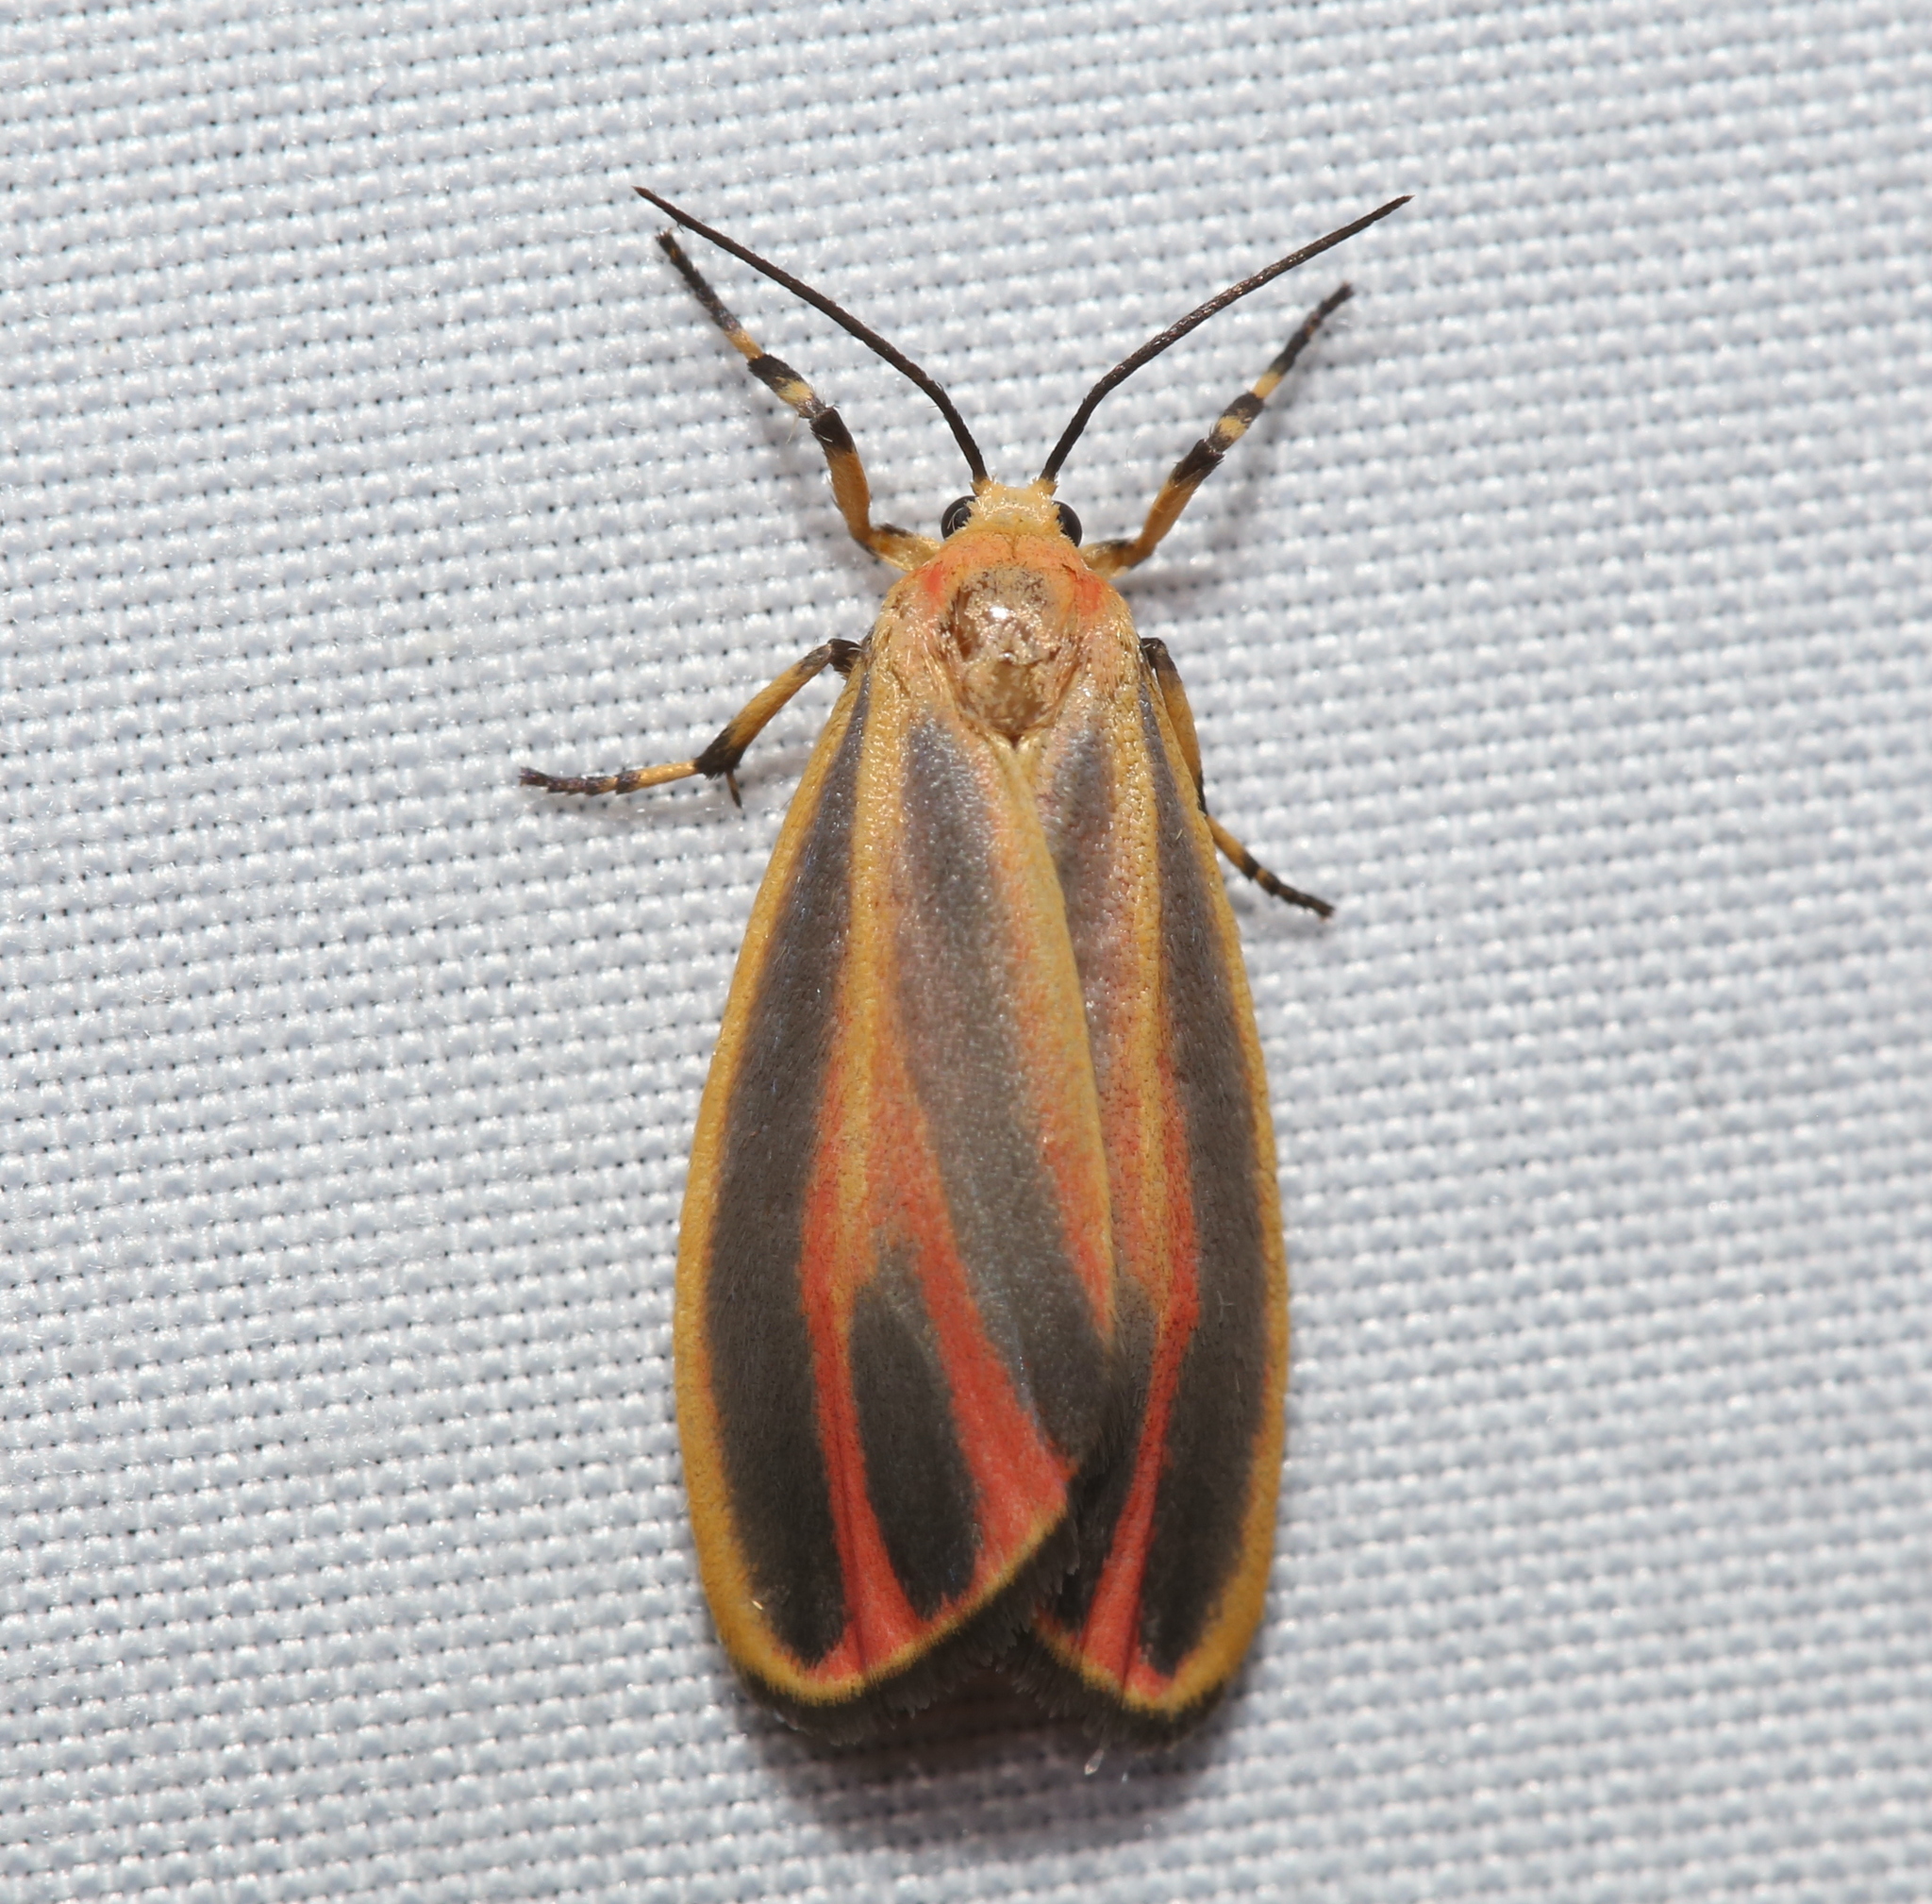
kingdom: Animalia
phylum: Arthropoda
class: Insecta
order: Lepidoptera
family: Erebidae
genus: Hypoprepia
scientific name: Hypoprepia fucosa
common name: Painted lichen moth
